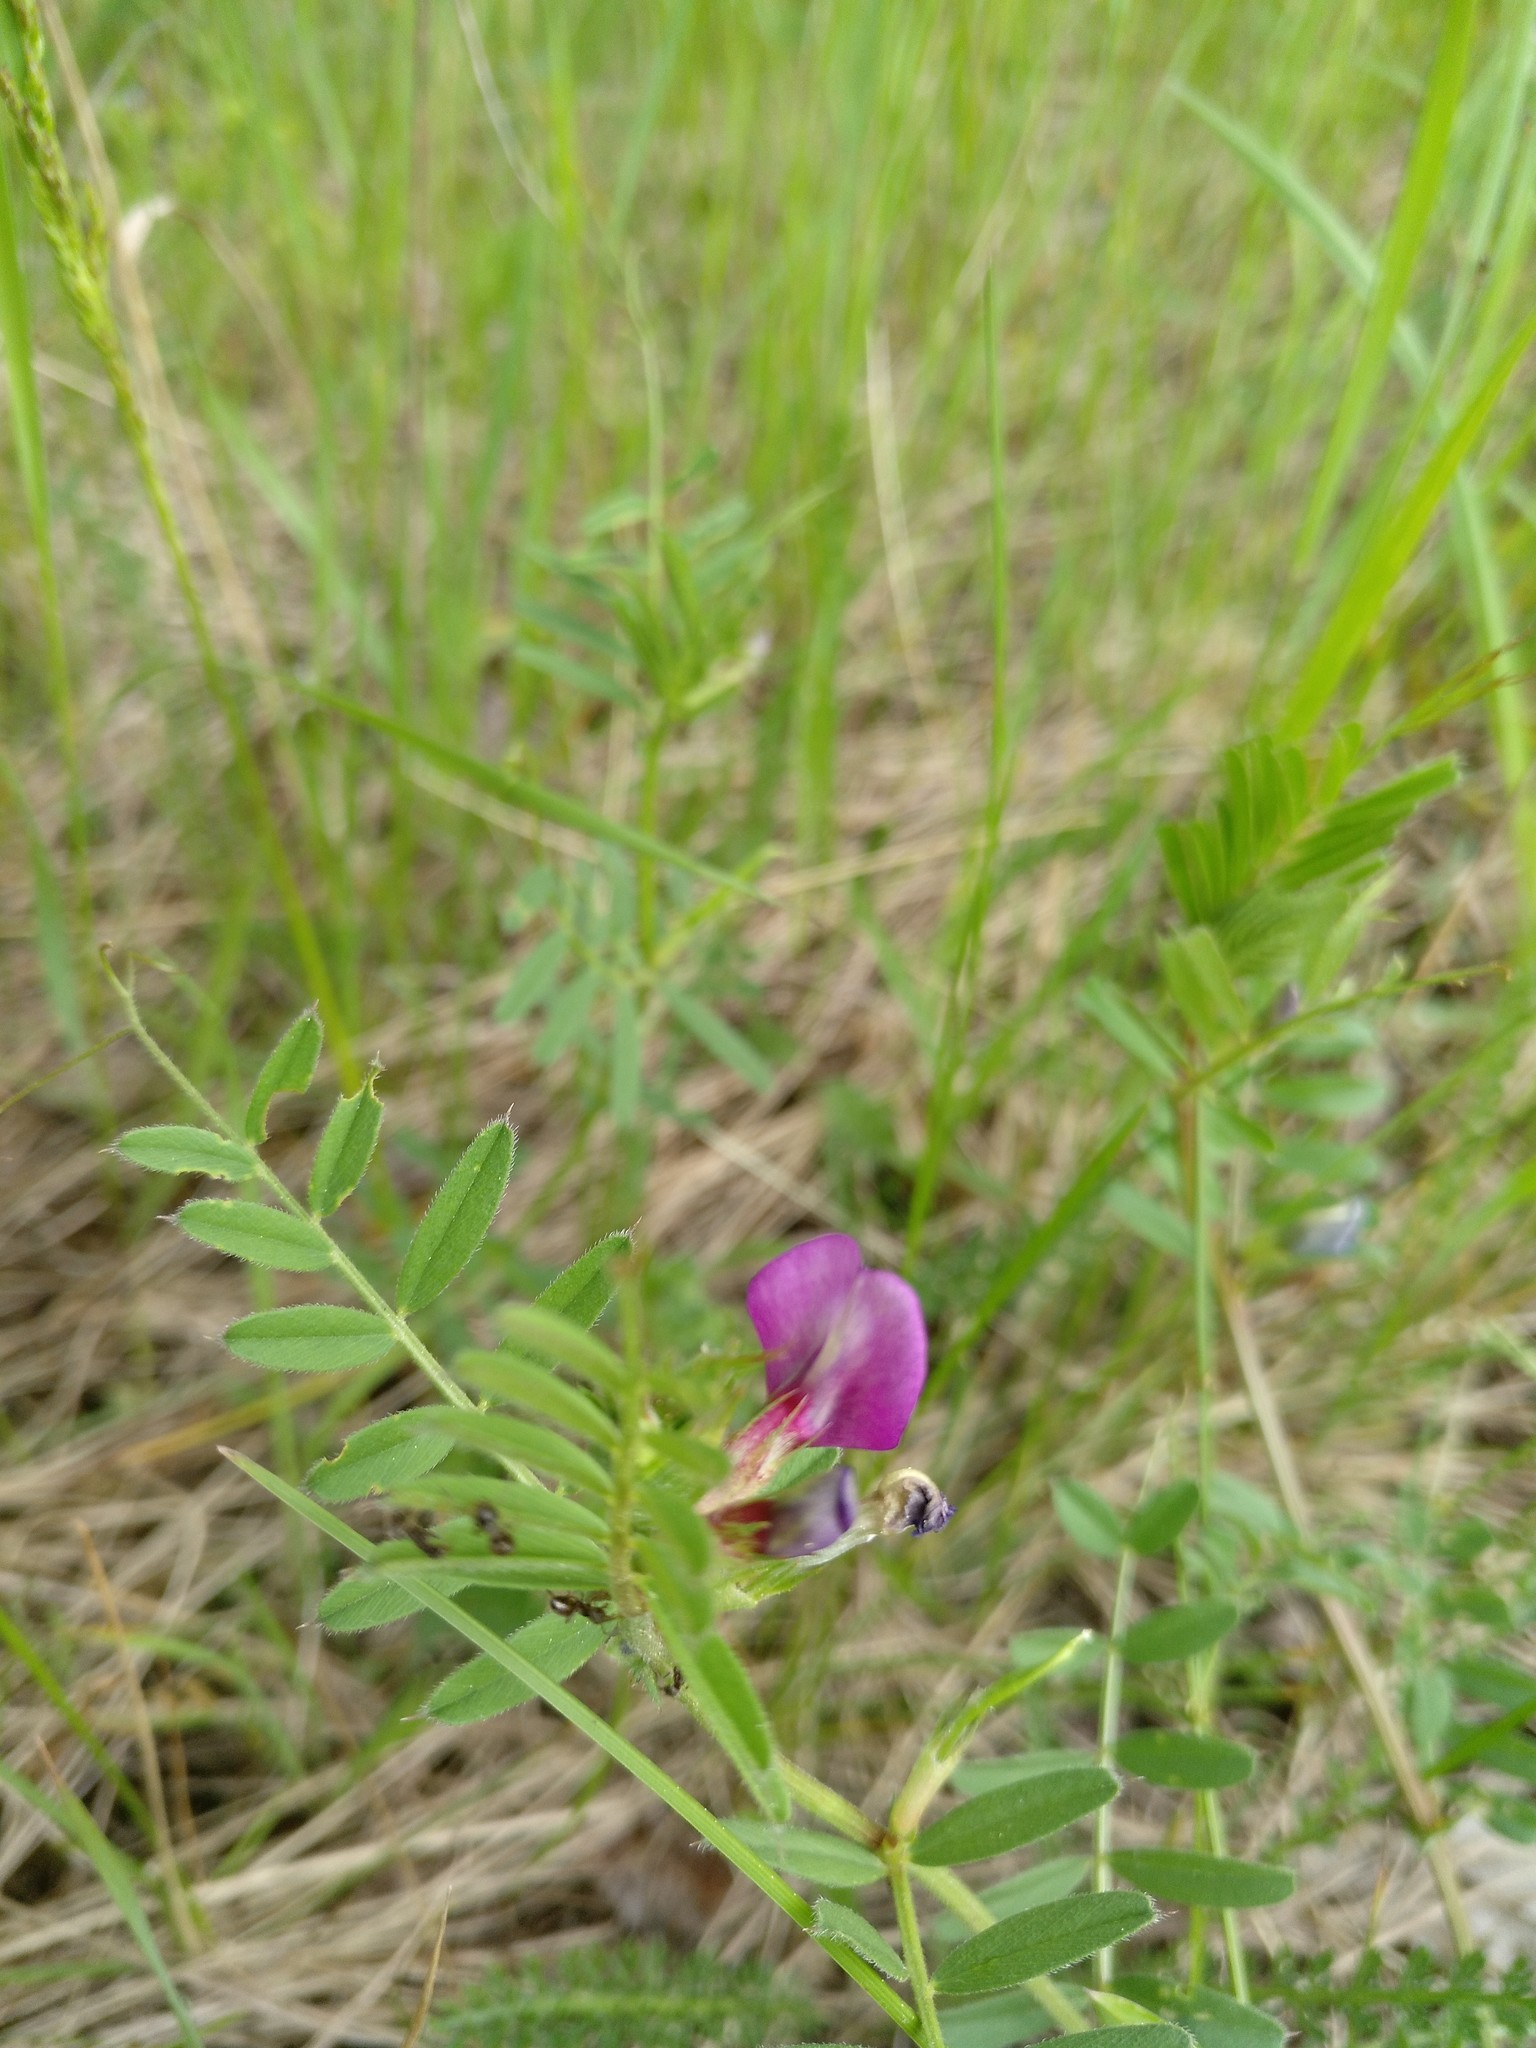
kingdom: Plantae
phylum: Tracheophyta
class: Magnoliopsida
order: Fabales
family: Fabaceae
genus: Vicia
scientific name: Vicia sativa
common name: Garden vetch
